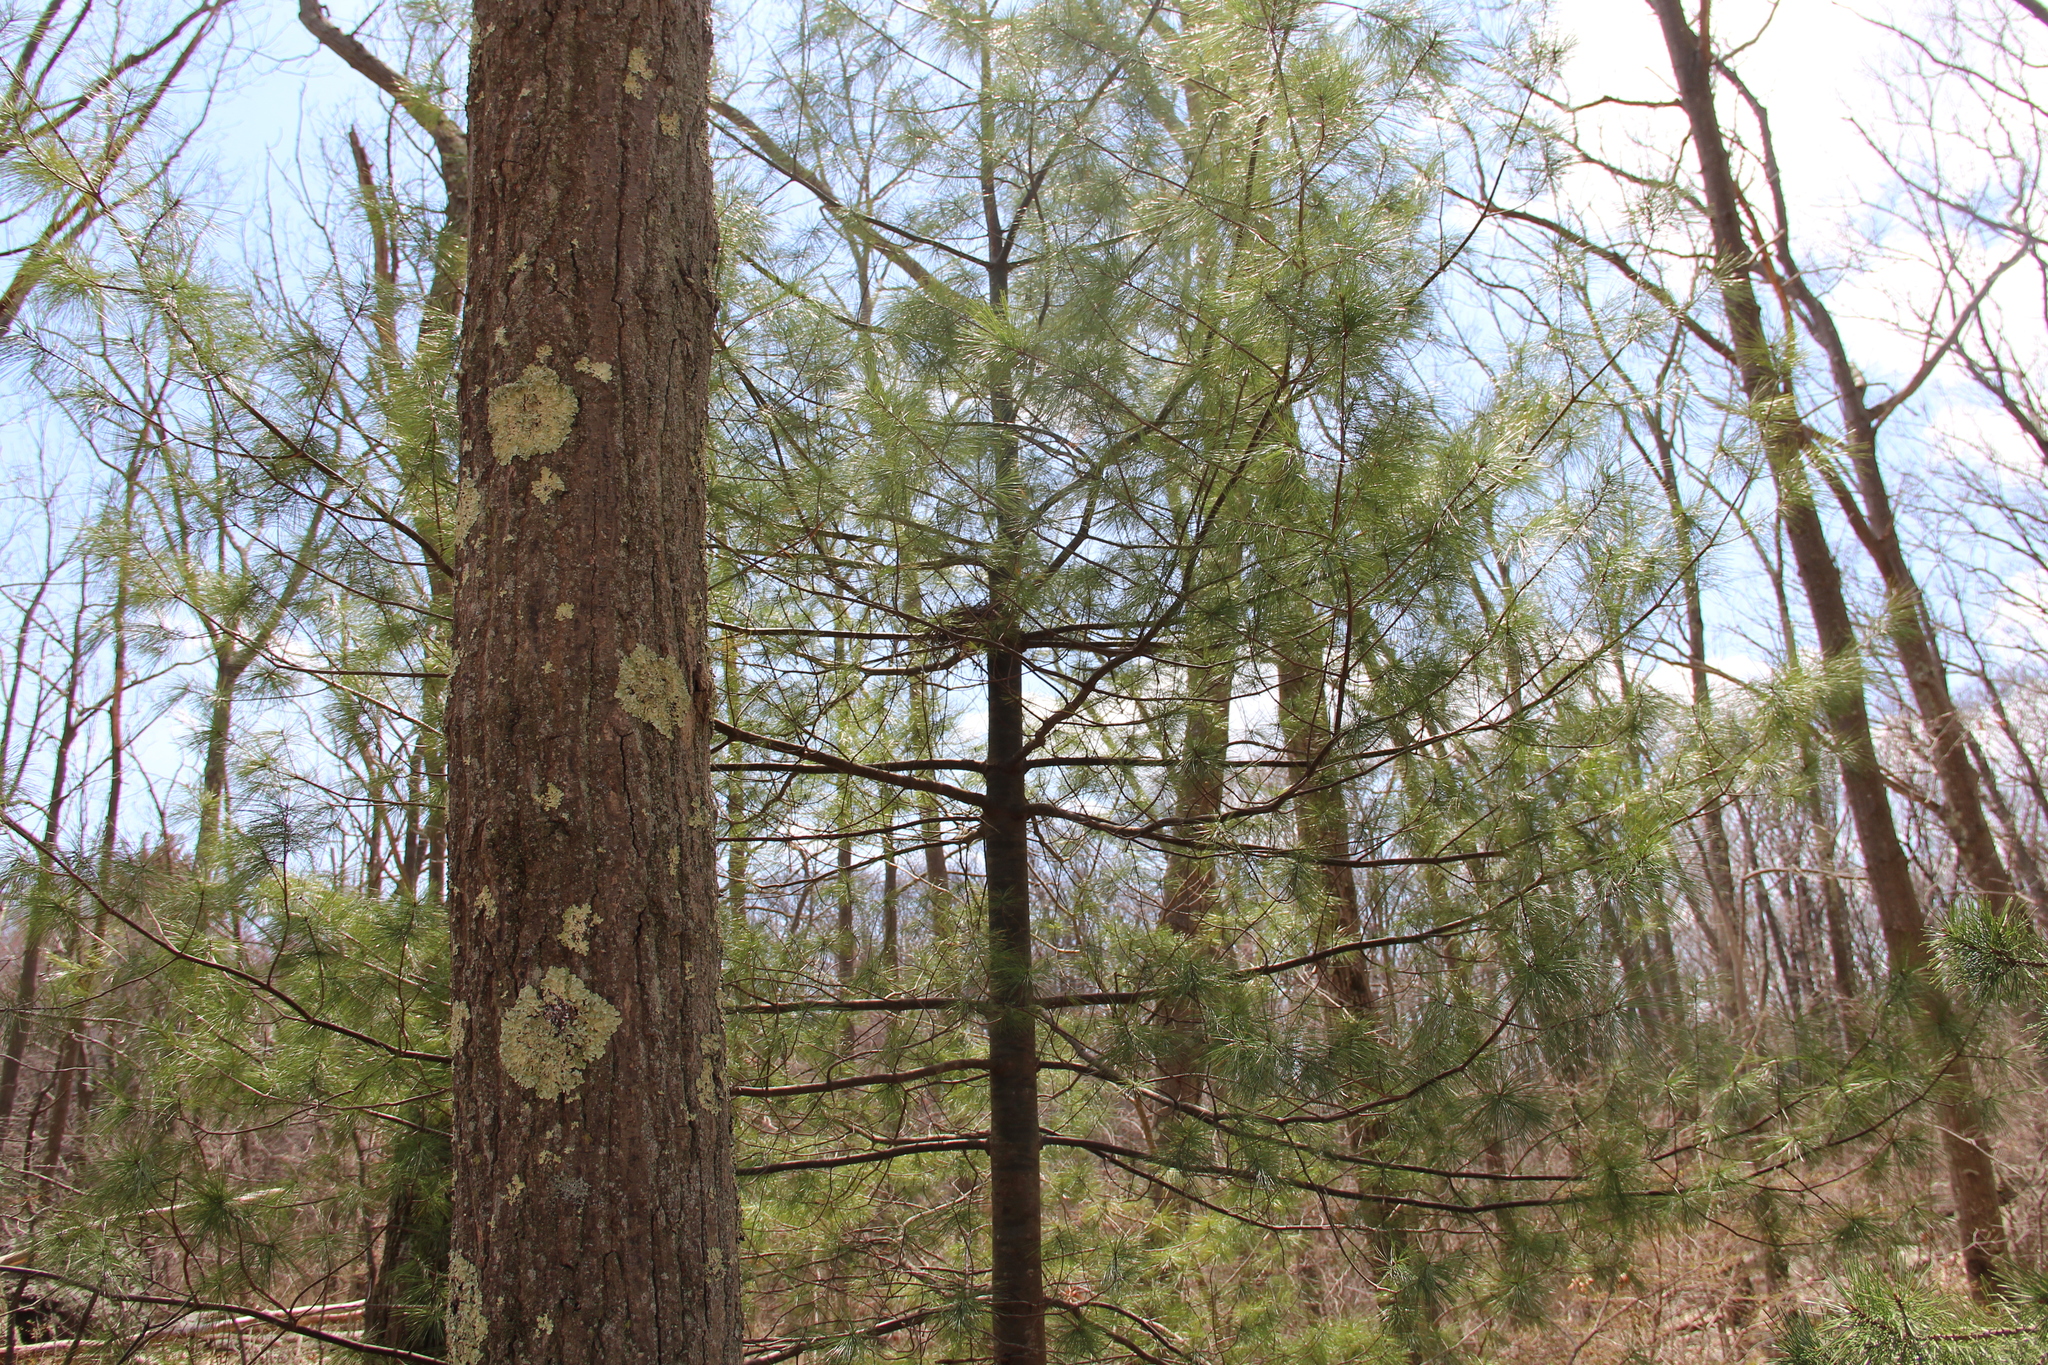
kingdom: Plantae
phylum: Tracheophyta
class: Pinopsida
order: Pinales
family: Pinaceae
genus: Pinus
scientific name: Pinus strobus
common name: Weymouth pine
